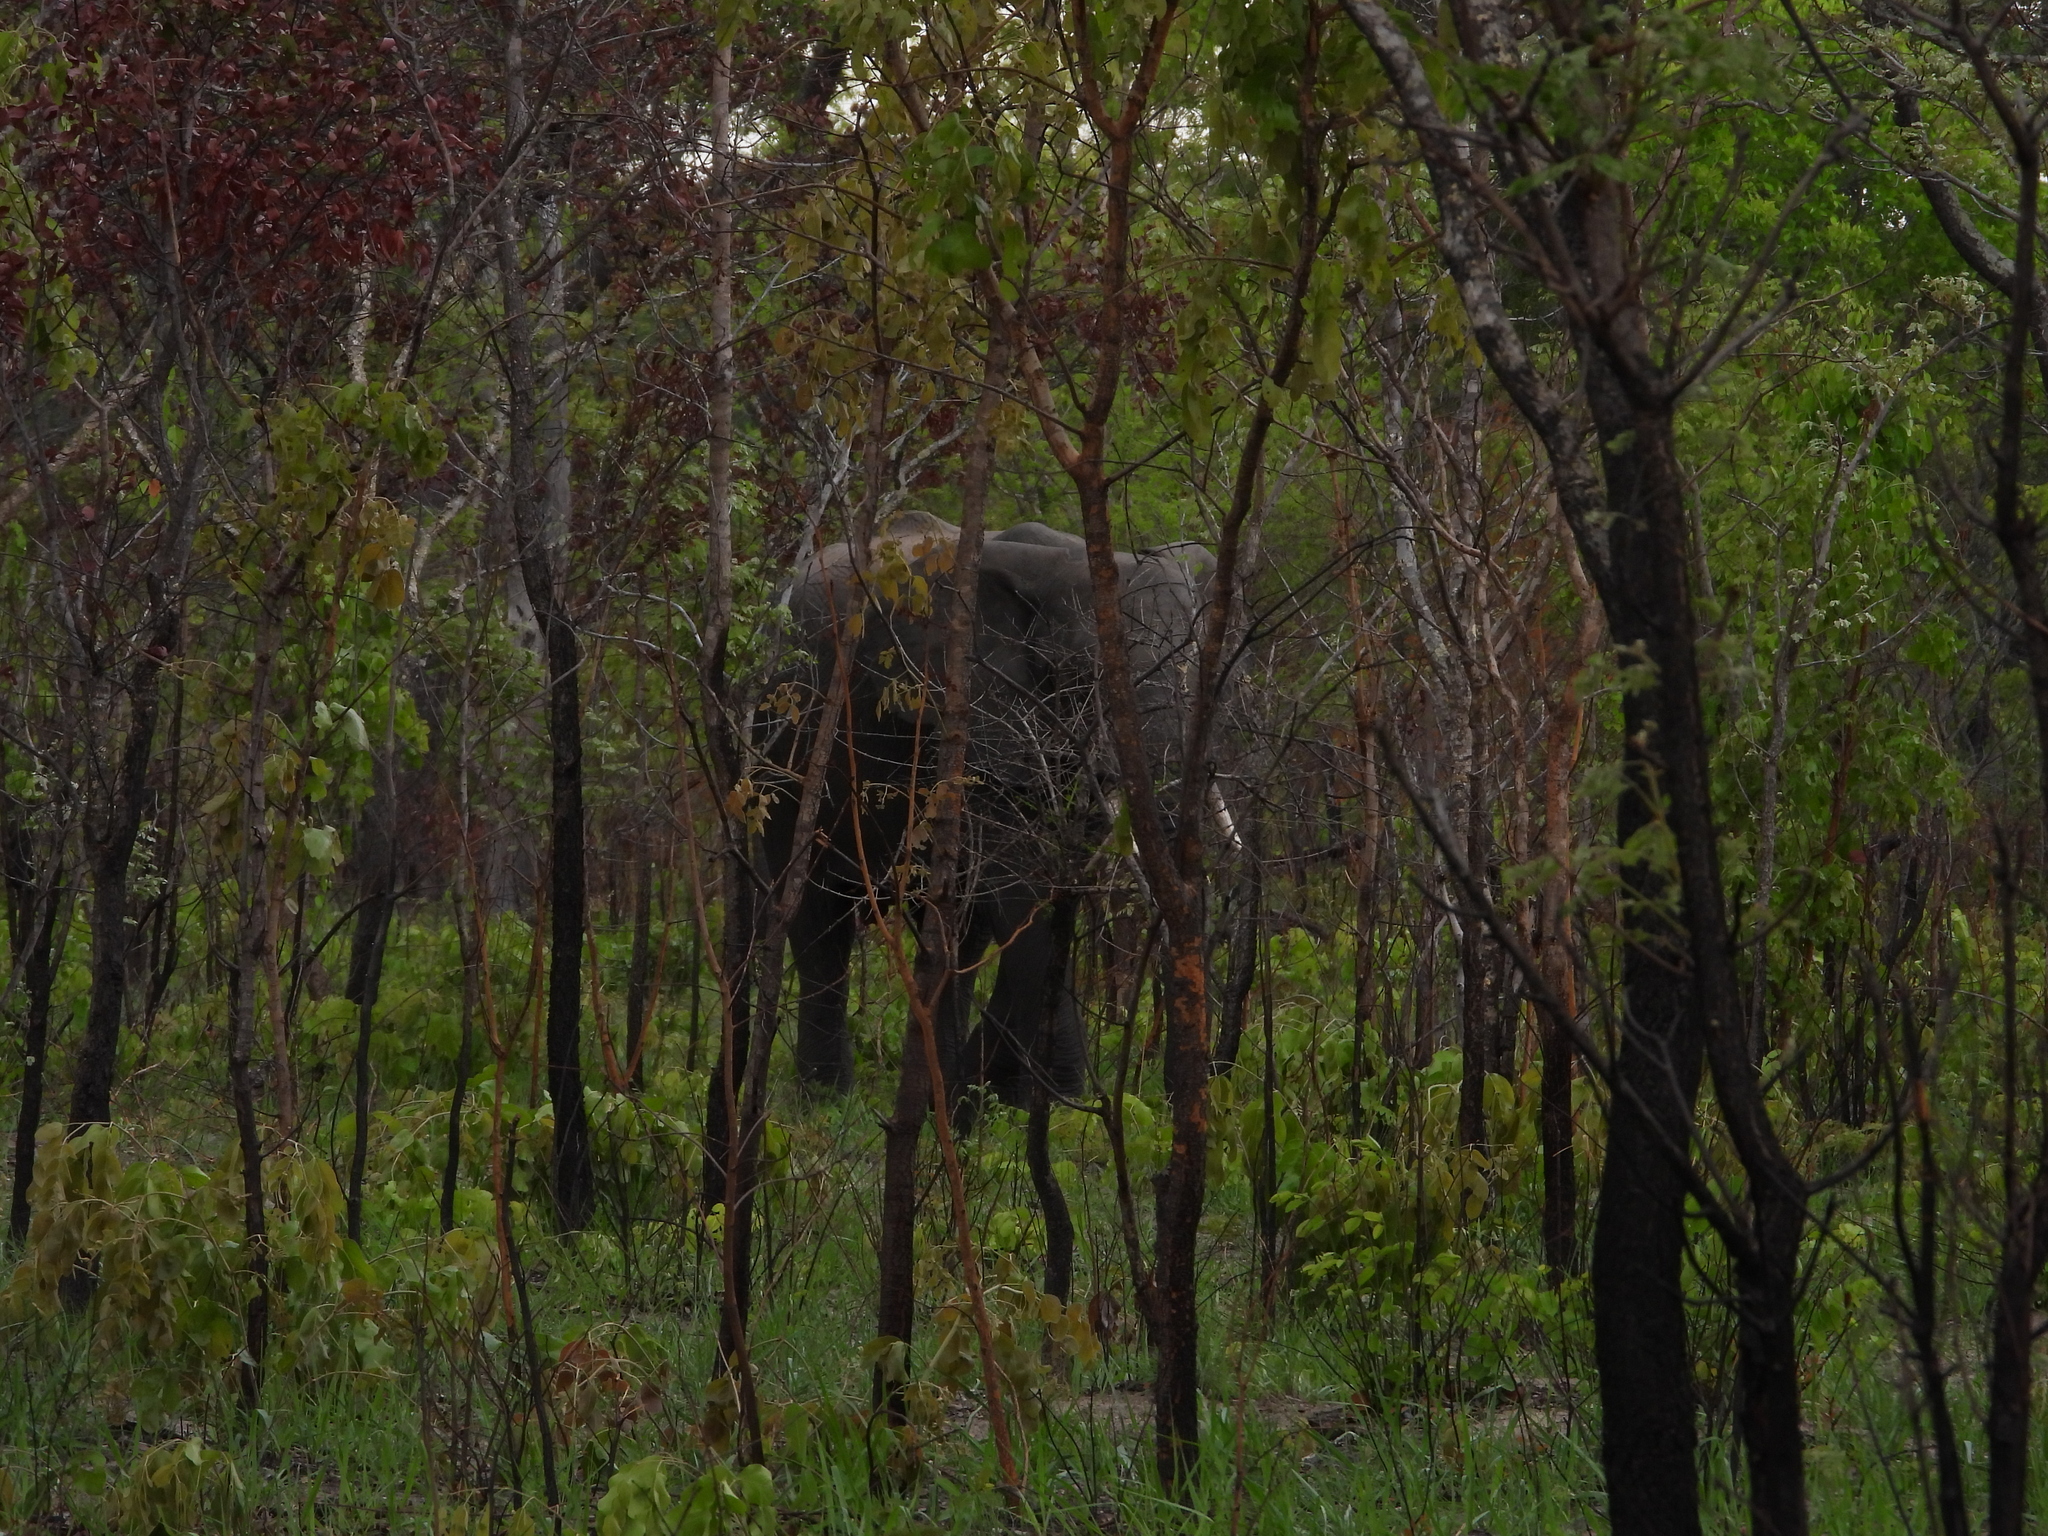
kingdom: Animalia
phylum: Chordata
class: Mammalia
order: Proboscidea
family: Elephantidae
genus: Loxodonta
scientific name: Loxodonta africana
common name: African elephant
